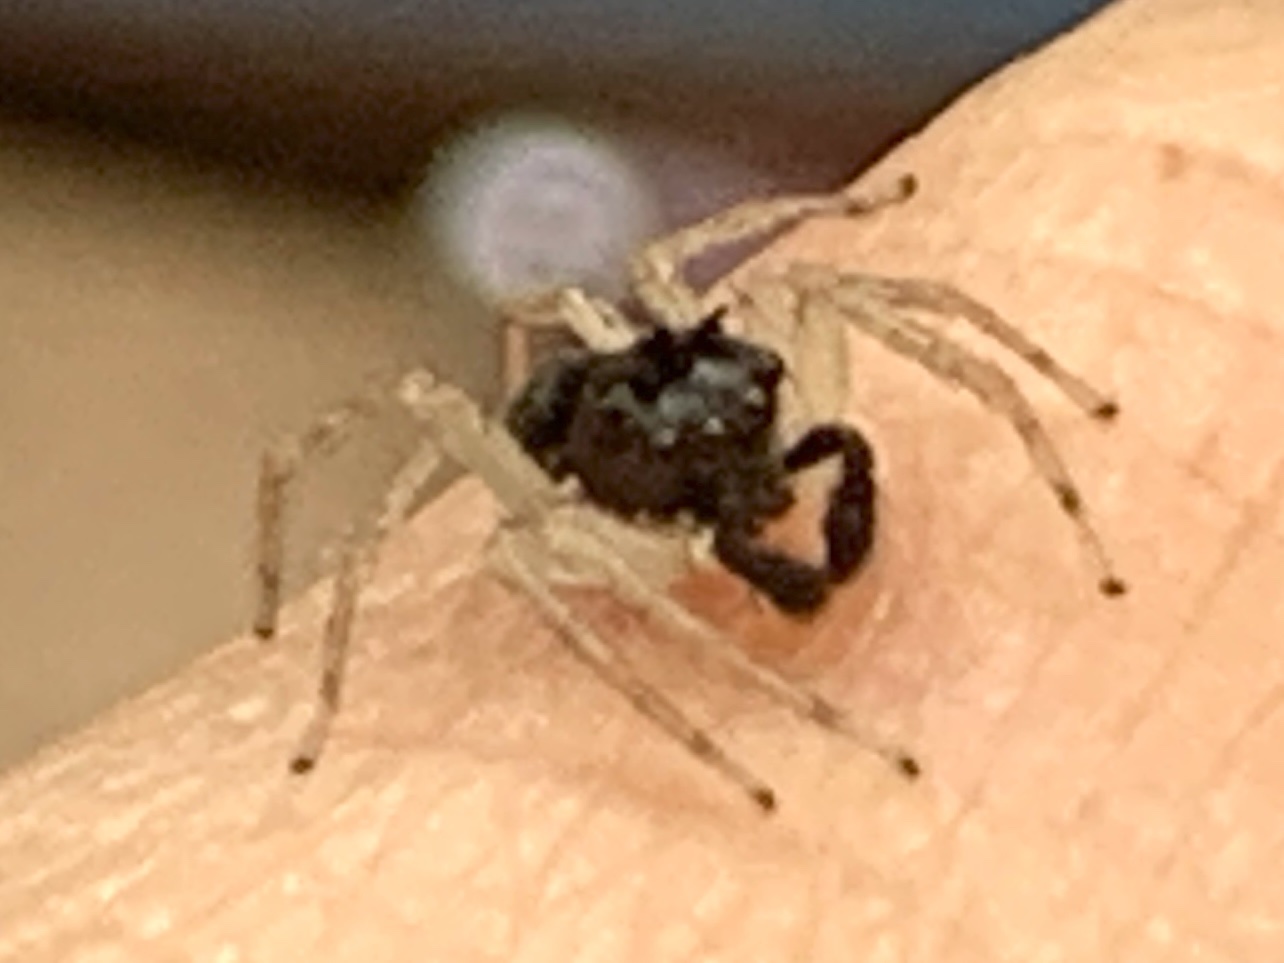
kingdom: Animalia
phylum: Arthropoda
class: Arachnida
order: Araneae
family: Salticidae
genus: Maevia
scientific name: Maevia inclemens
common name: Dimorphic jumper
